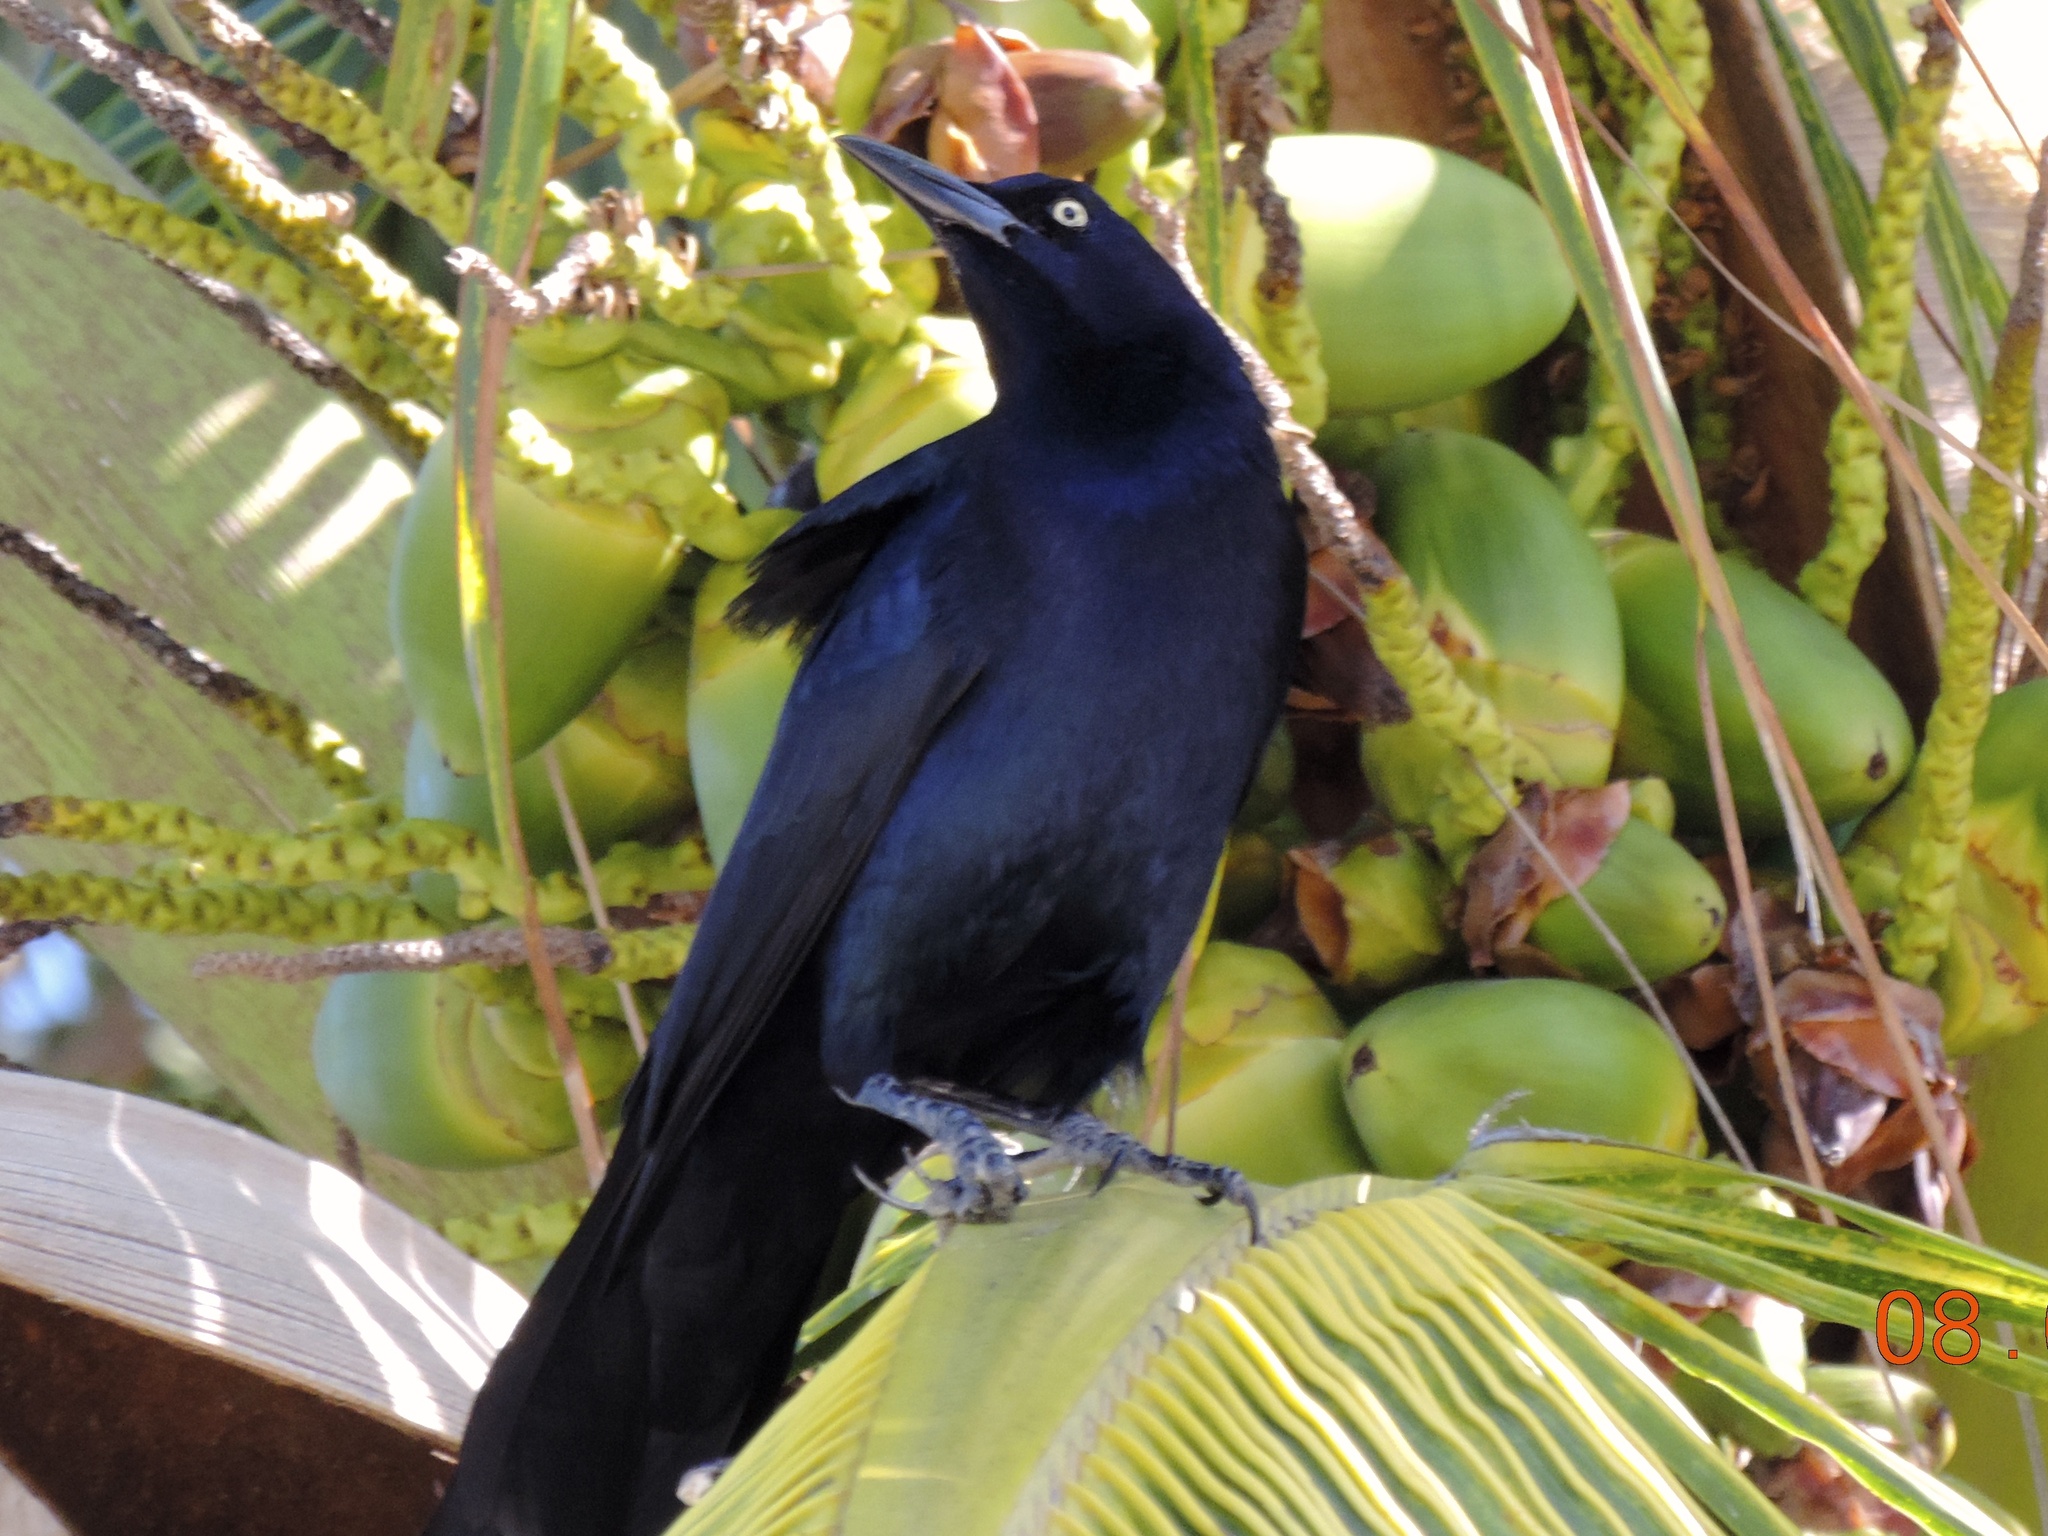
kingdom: Animalia
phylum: Chordata
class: Aves
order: Passeriformes
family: Icteridae
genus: Quiscalus
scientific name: Quiscalus mexicanus
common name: Great-tailed grackle
